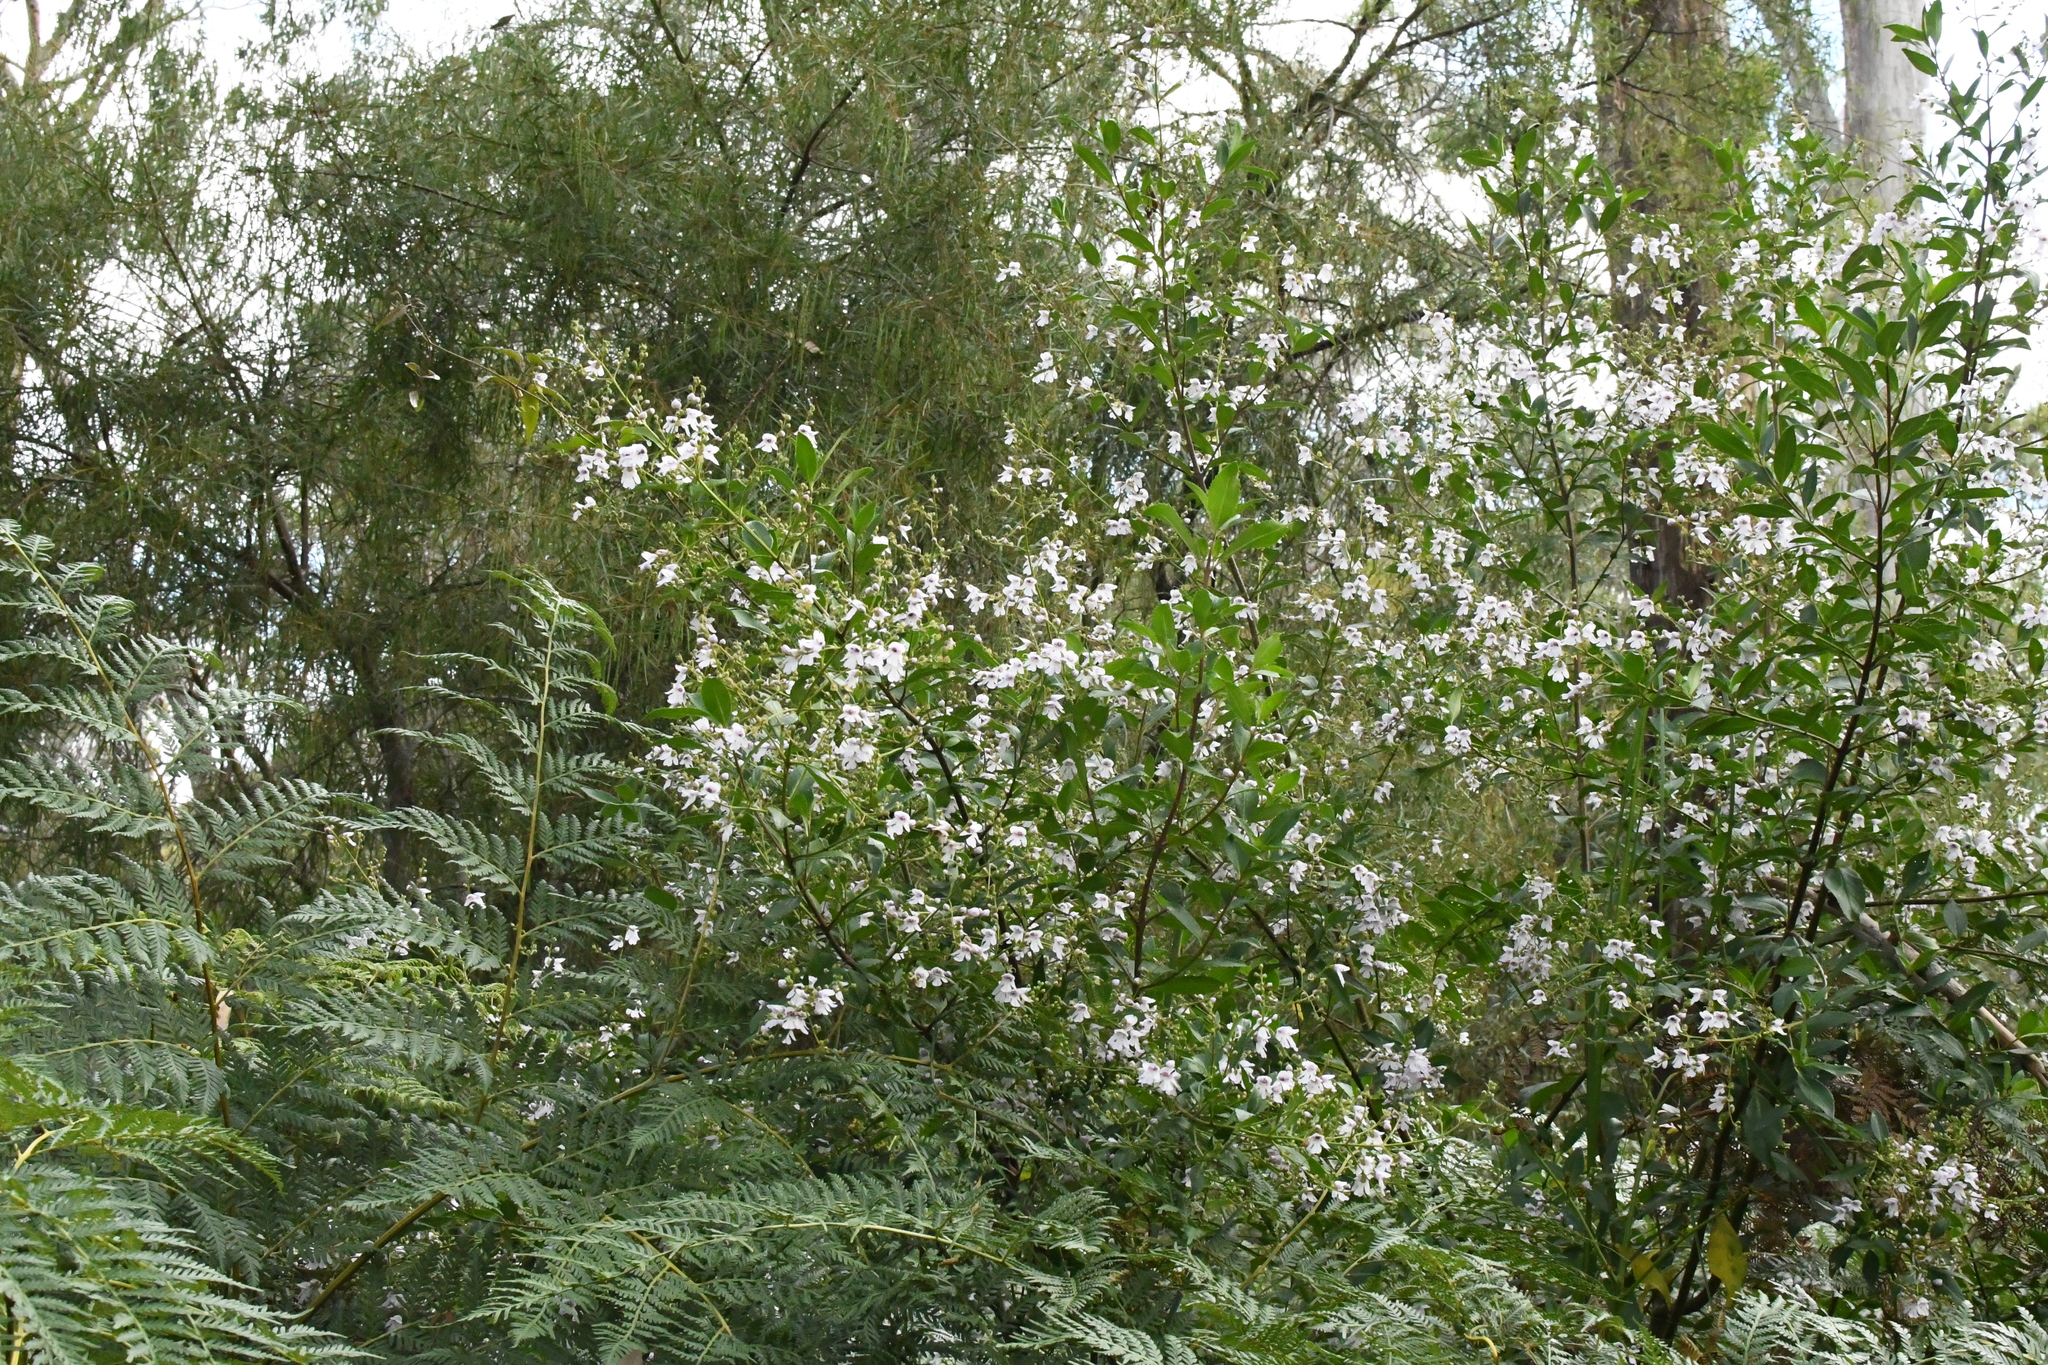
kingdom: Plantae
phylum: Tracheophyta
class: Magnoliopsida
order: Lamiales
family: Lamiaceae
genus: Prostanthera
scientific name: Prostanthera lasianthos
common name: Mountain-lilac
